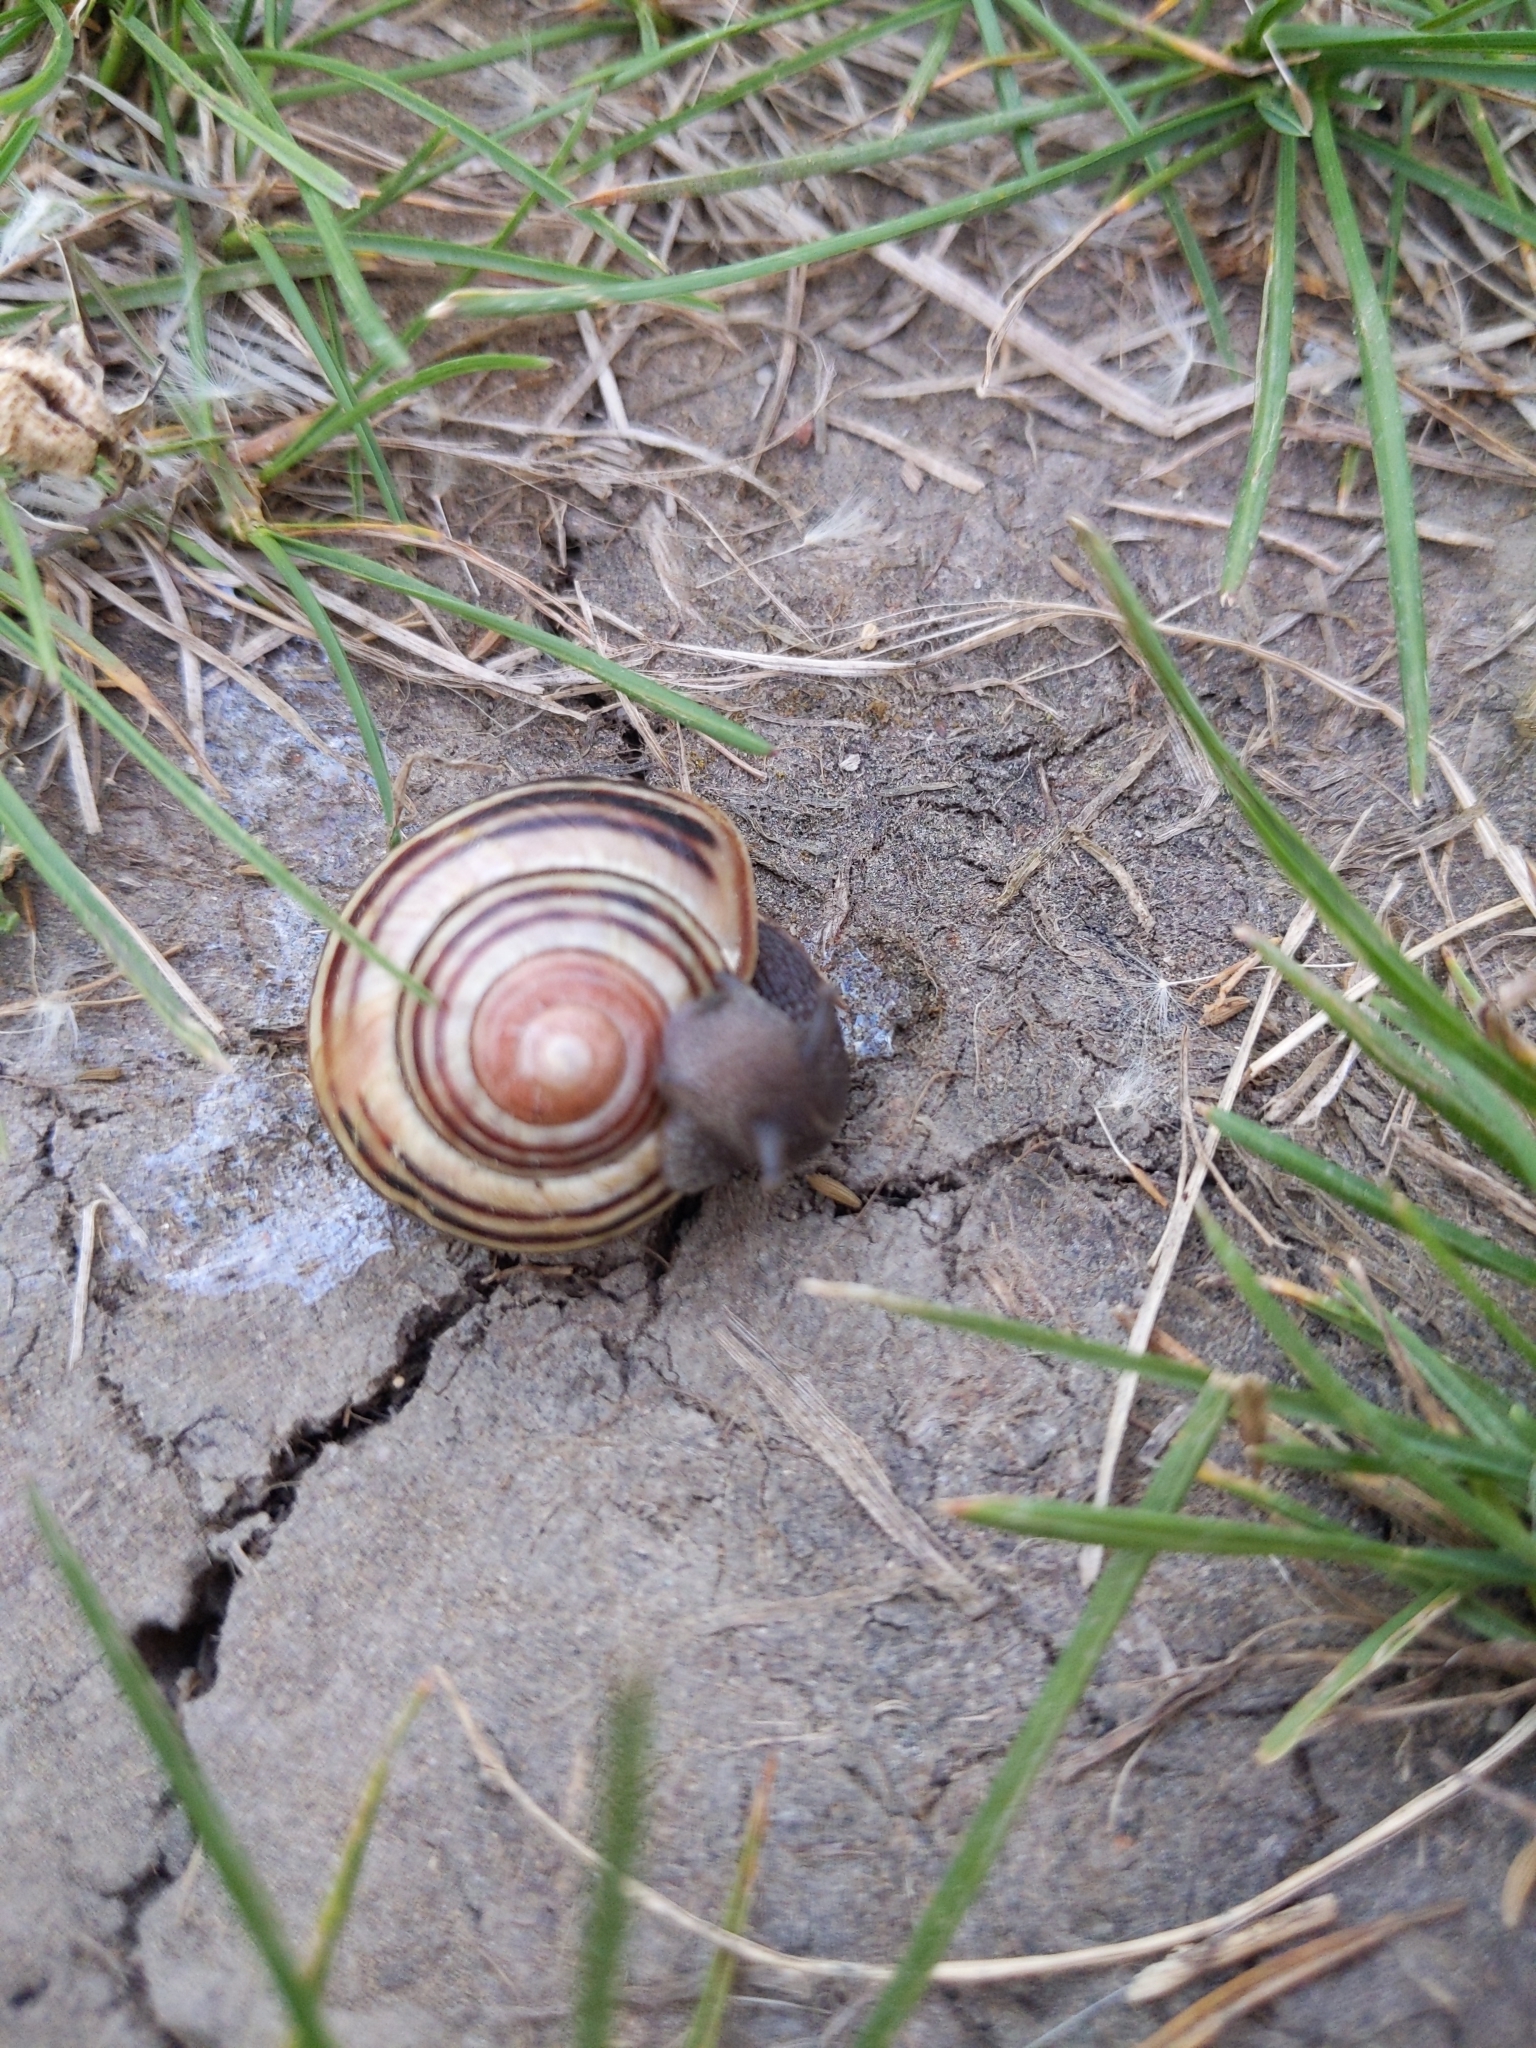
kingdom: Animalia
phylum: Mollusca
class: Gastropoda
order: Stylommatophora
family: Helicidae
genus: Cepaea
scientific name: Cepaea nemoralis
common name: Grovesnail
